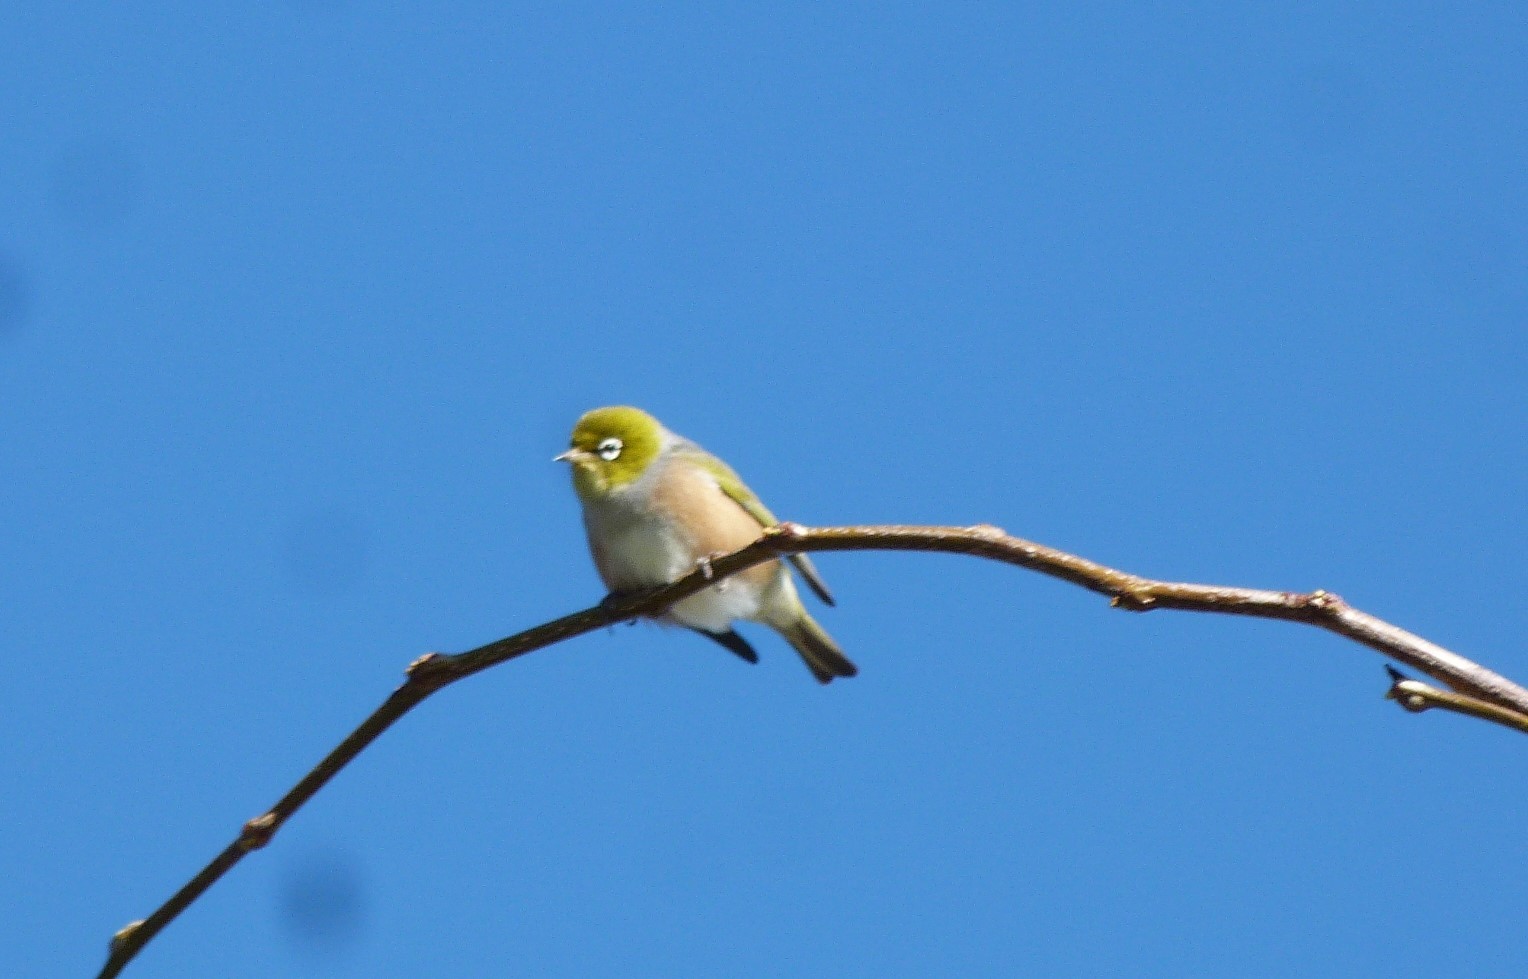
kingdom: Animalia
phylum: Chordata
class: Aves
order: Passeriformes
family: Zosteropidae
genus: Zosterops
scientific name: Zosterops lateralis
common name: Silvereye
